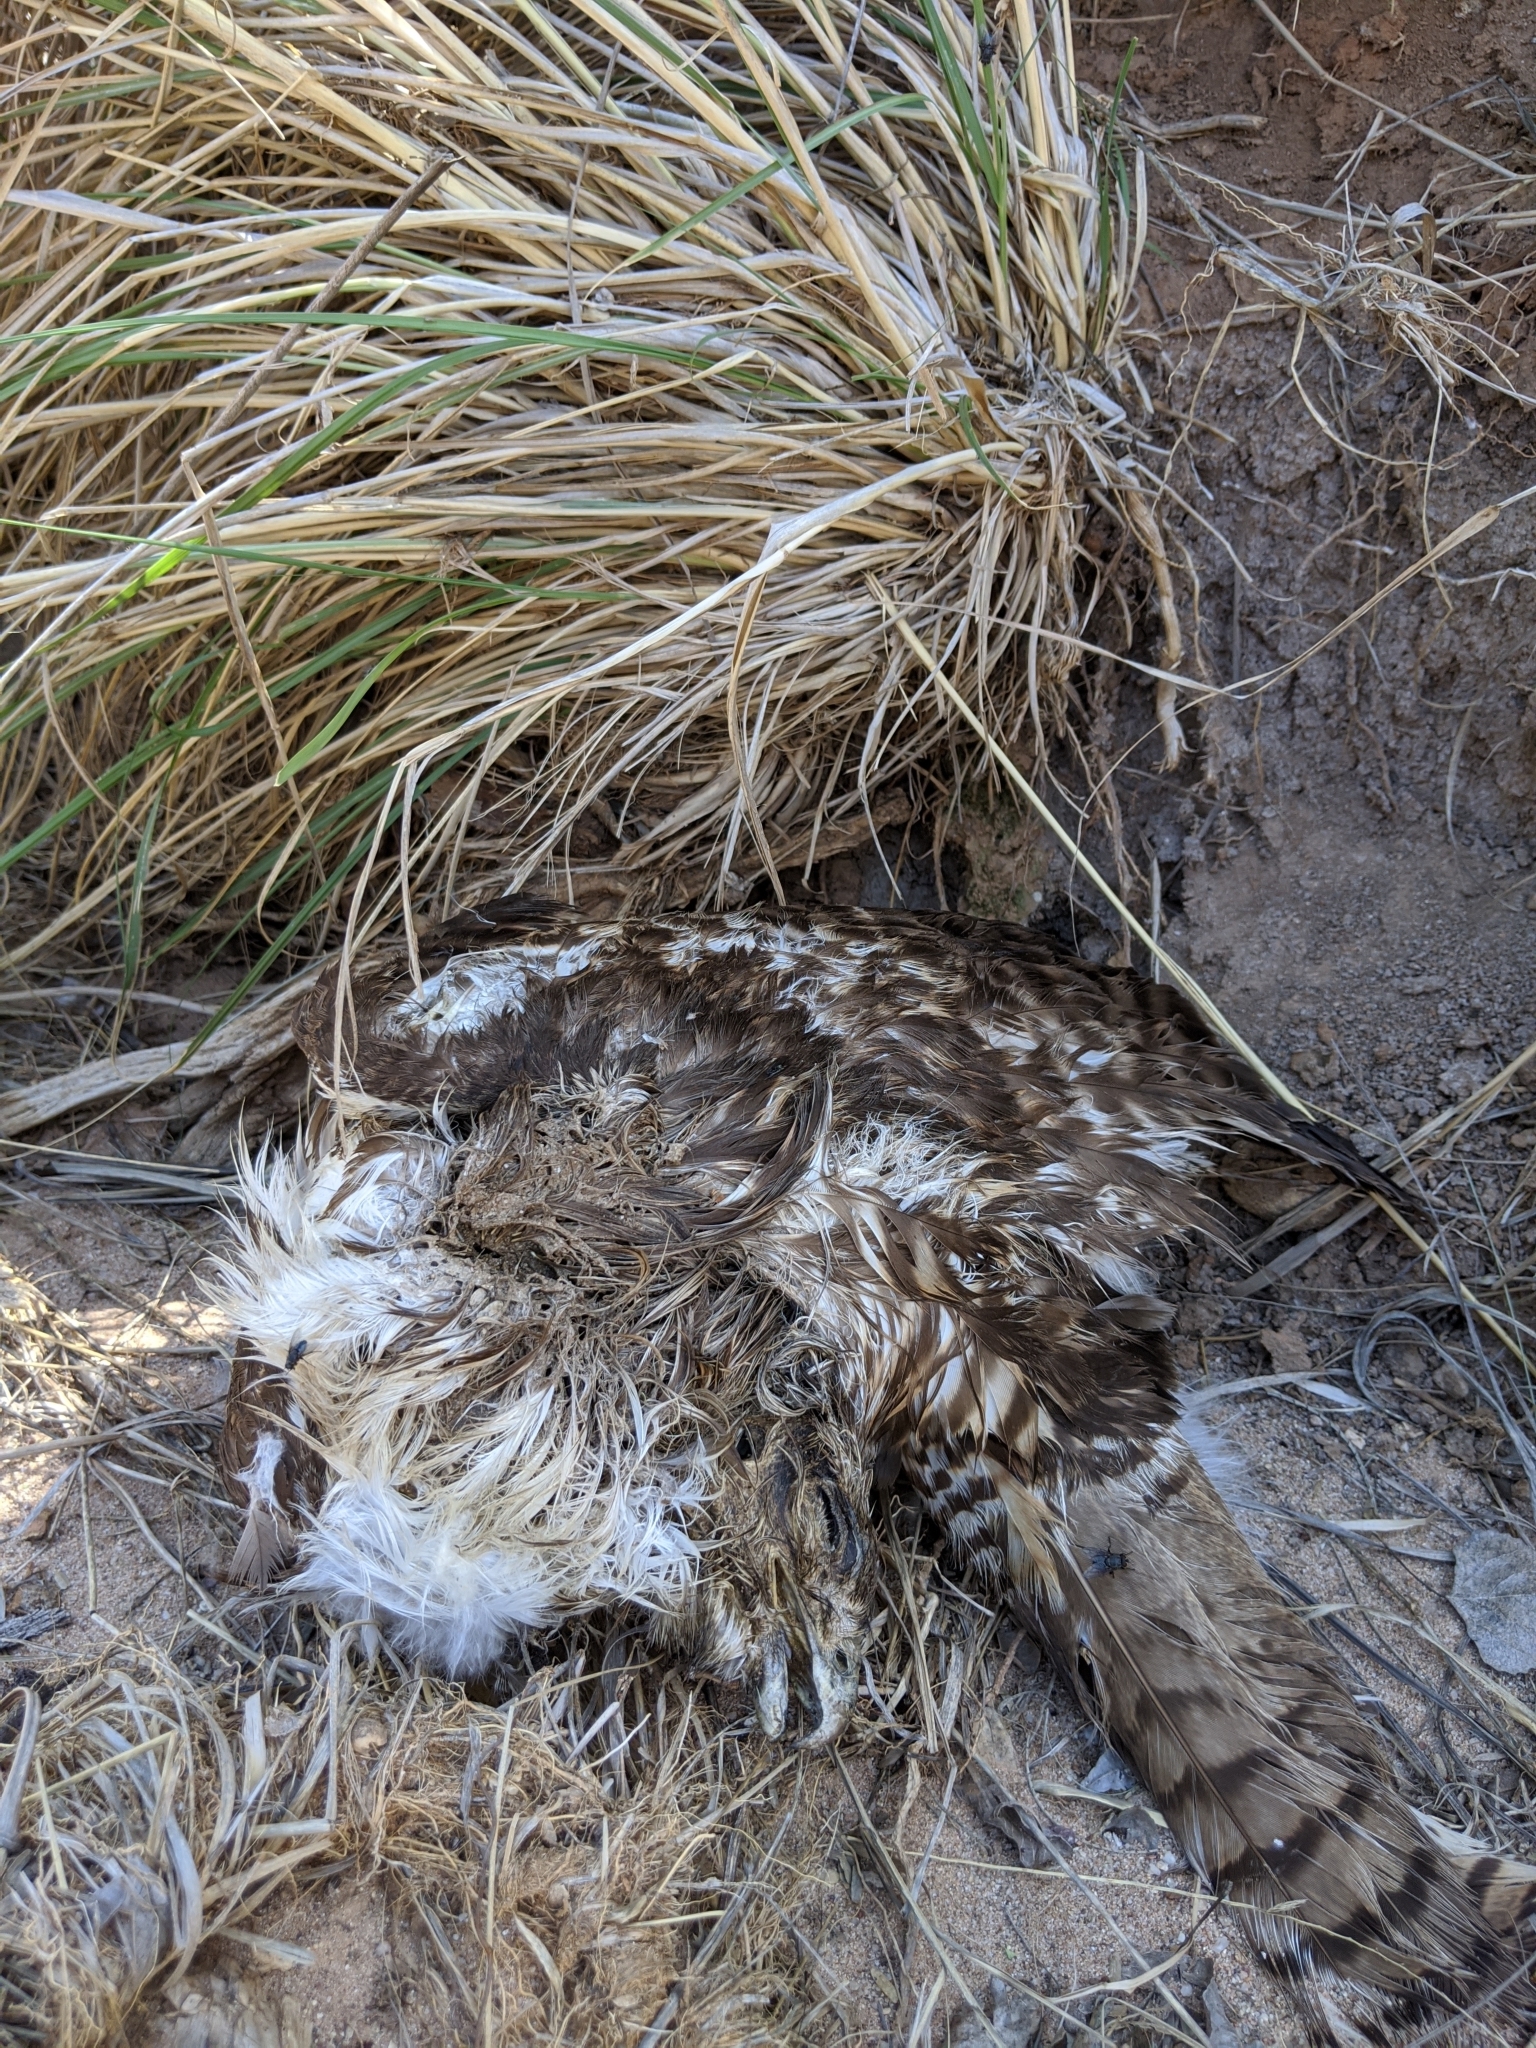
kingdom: Animalia
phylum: Chordata
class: Aves
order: Accipitriformes
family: Accipitridae
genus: Buteo
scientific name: Buteo jamaicensis
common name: Red-tailed hawk
